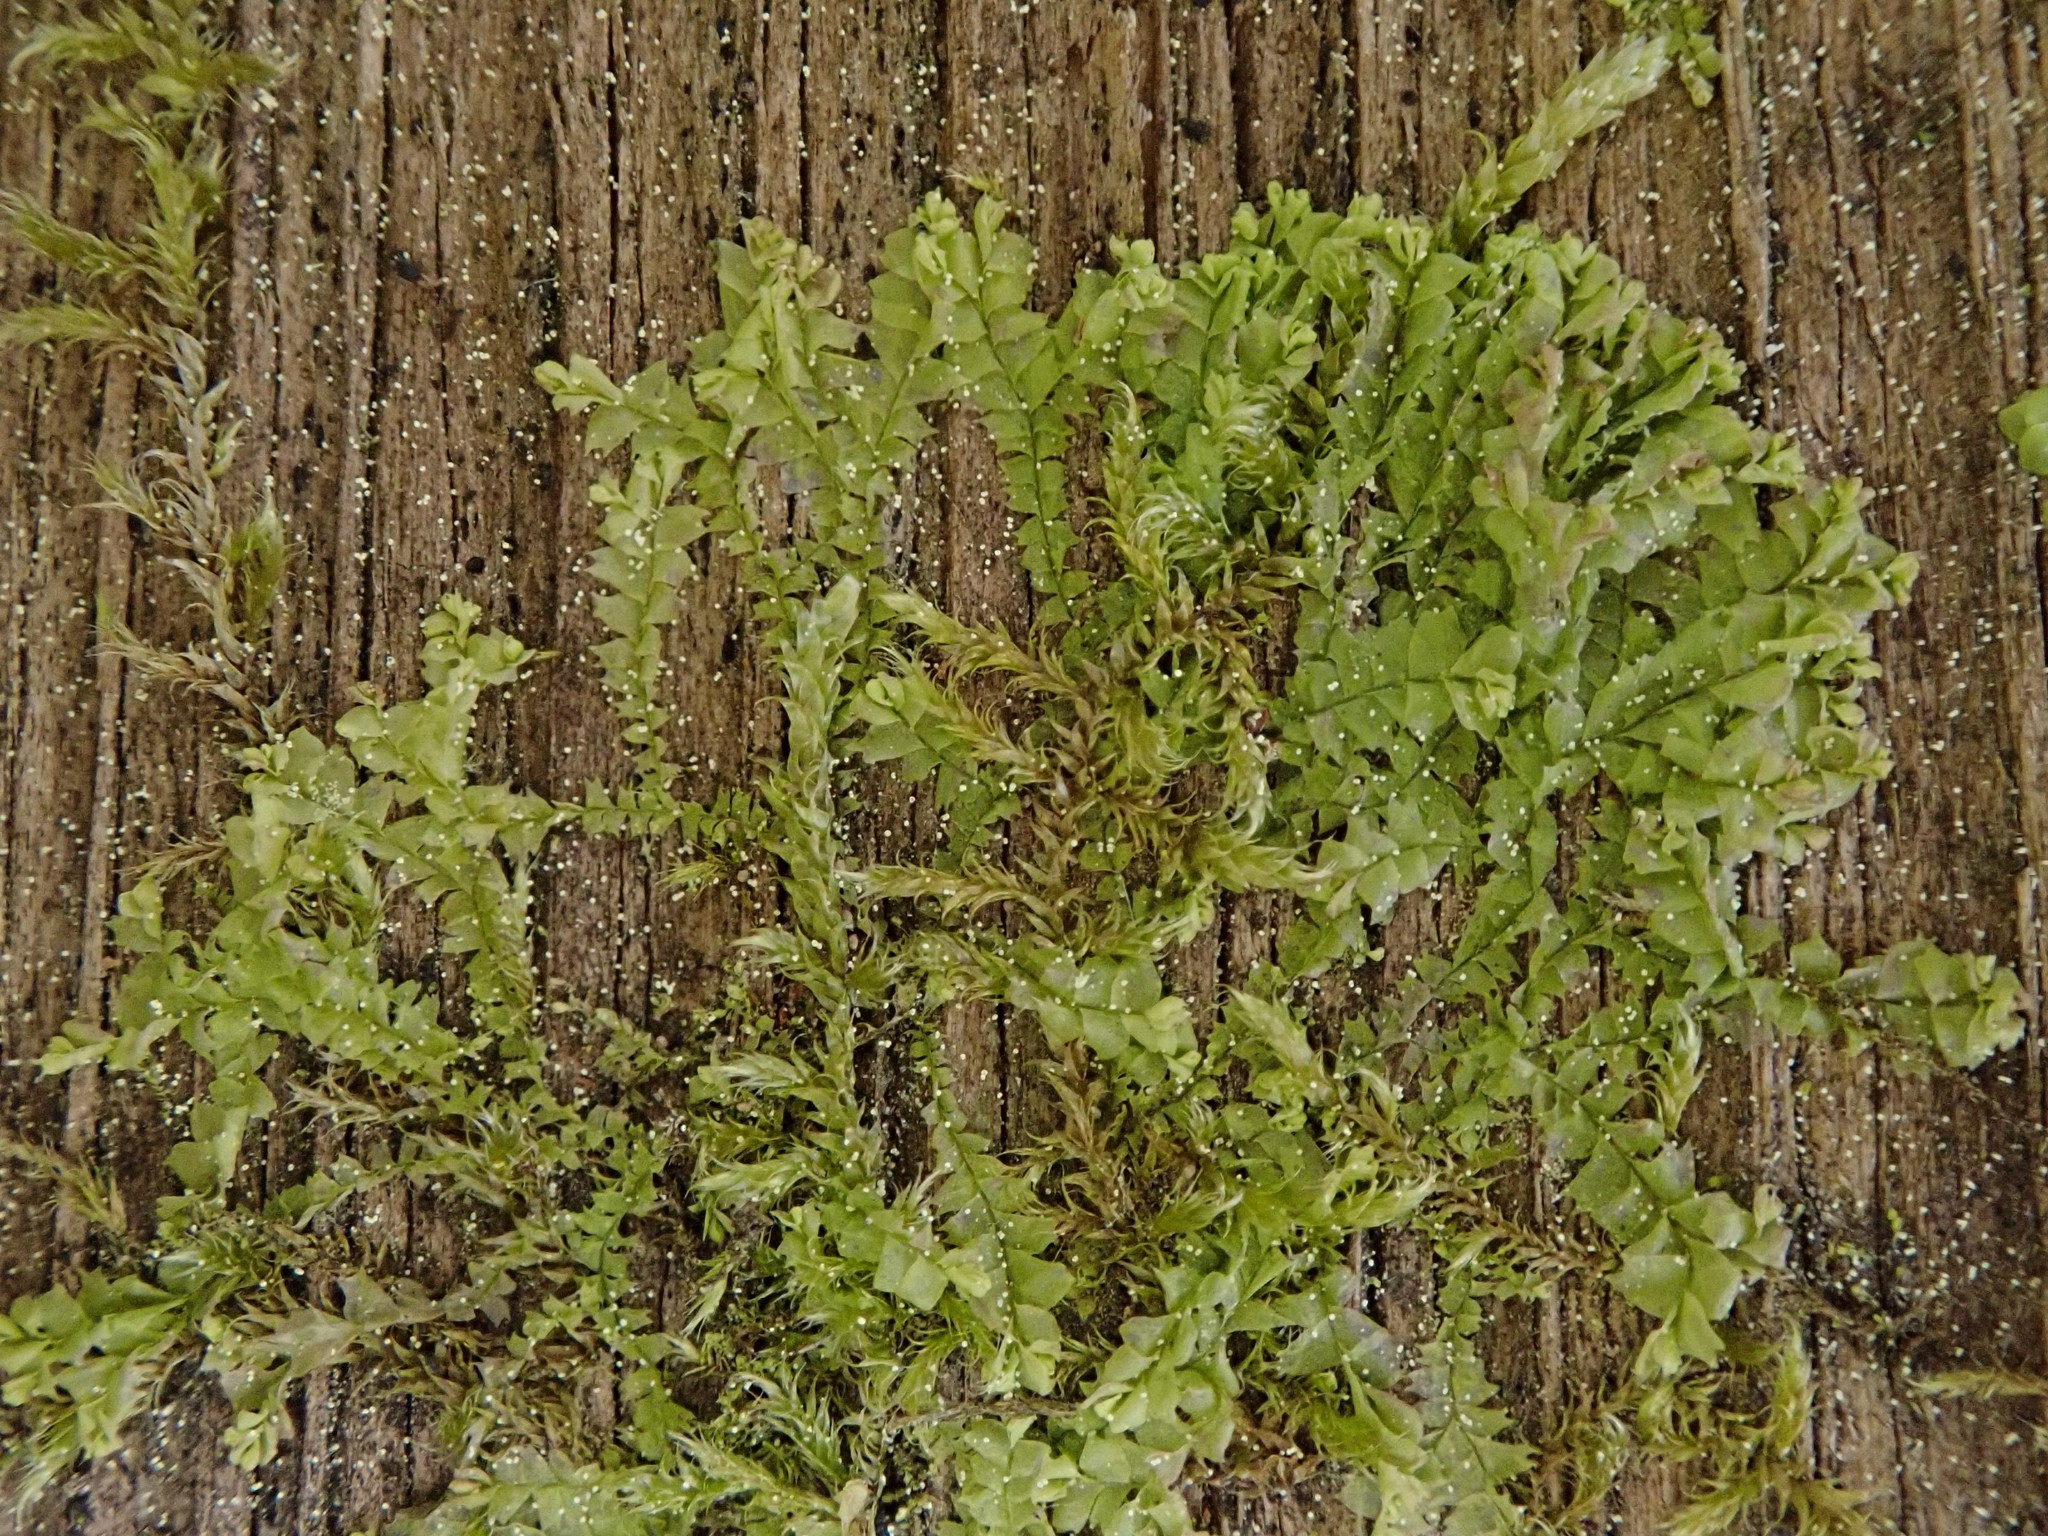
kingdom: Plantae
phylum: Marchantiophyta
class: Jungermanniopsida
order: Jungermanniales
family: Lophocoleaceae
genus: Lophocolea
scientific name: Lophocolea heterophylla
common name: Variable-leaved crestwort
